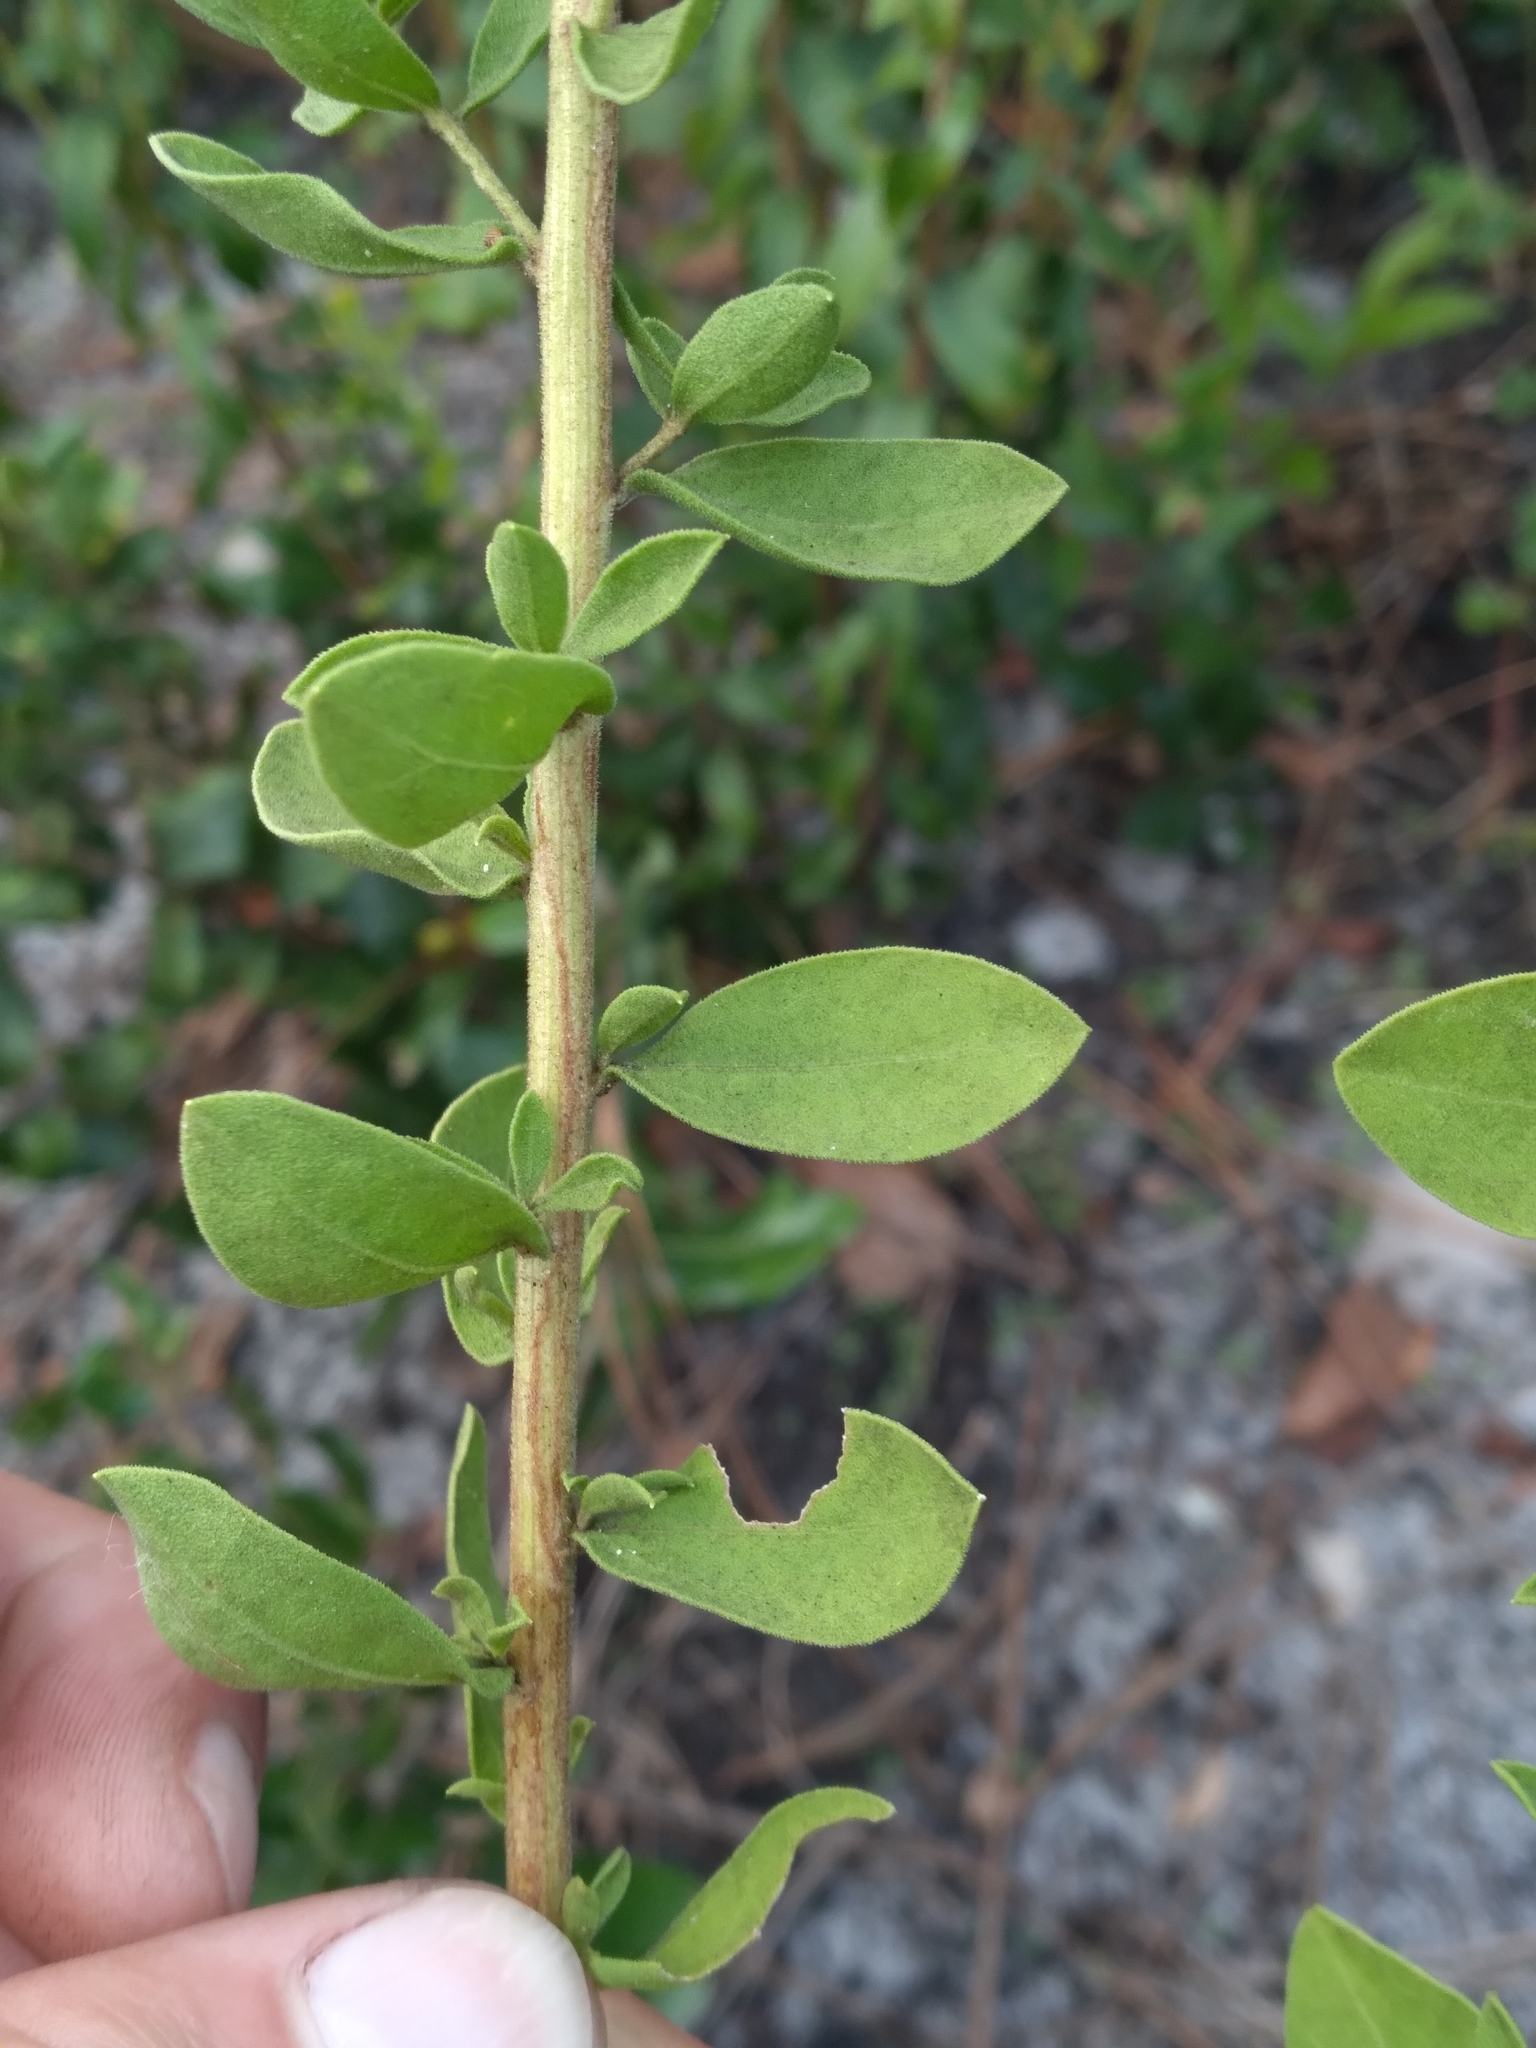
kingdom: Plantae
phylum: Tracheophyta
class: Magnoliopsida
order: Asterales
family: Asteraceae
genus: Sericocarpus
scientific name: Sericocarpus tortifolius
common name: Dixie aster
